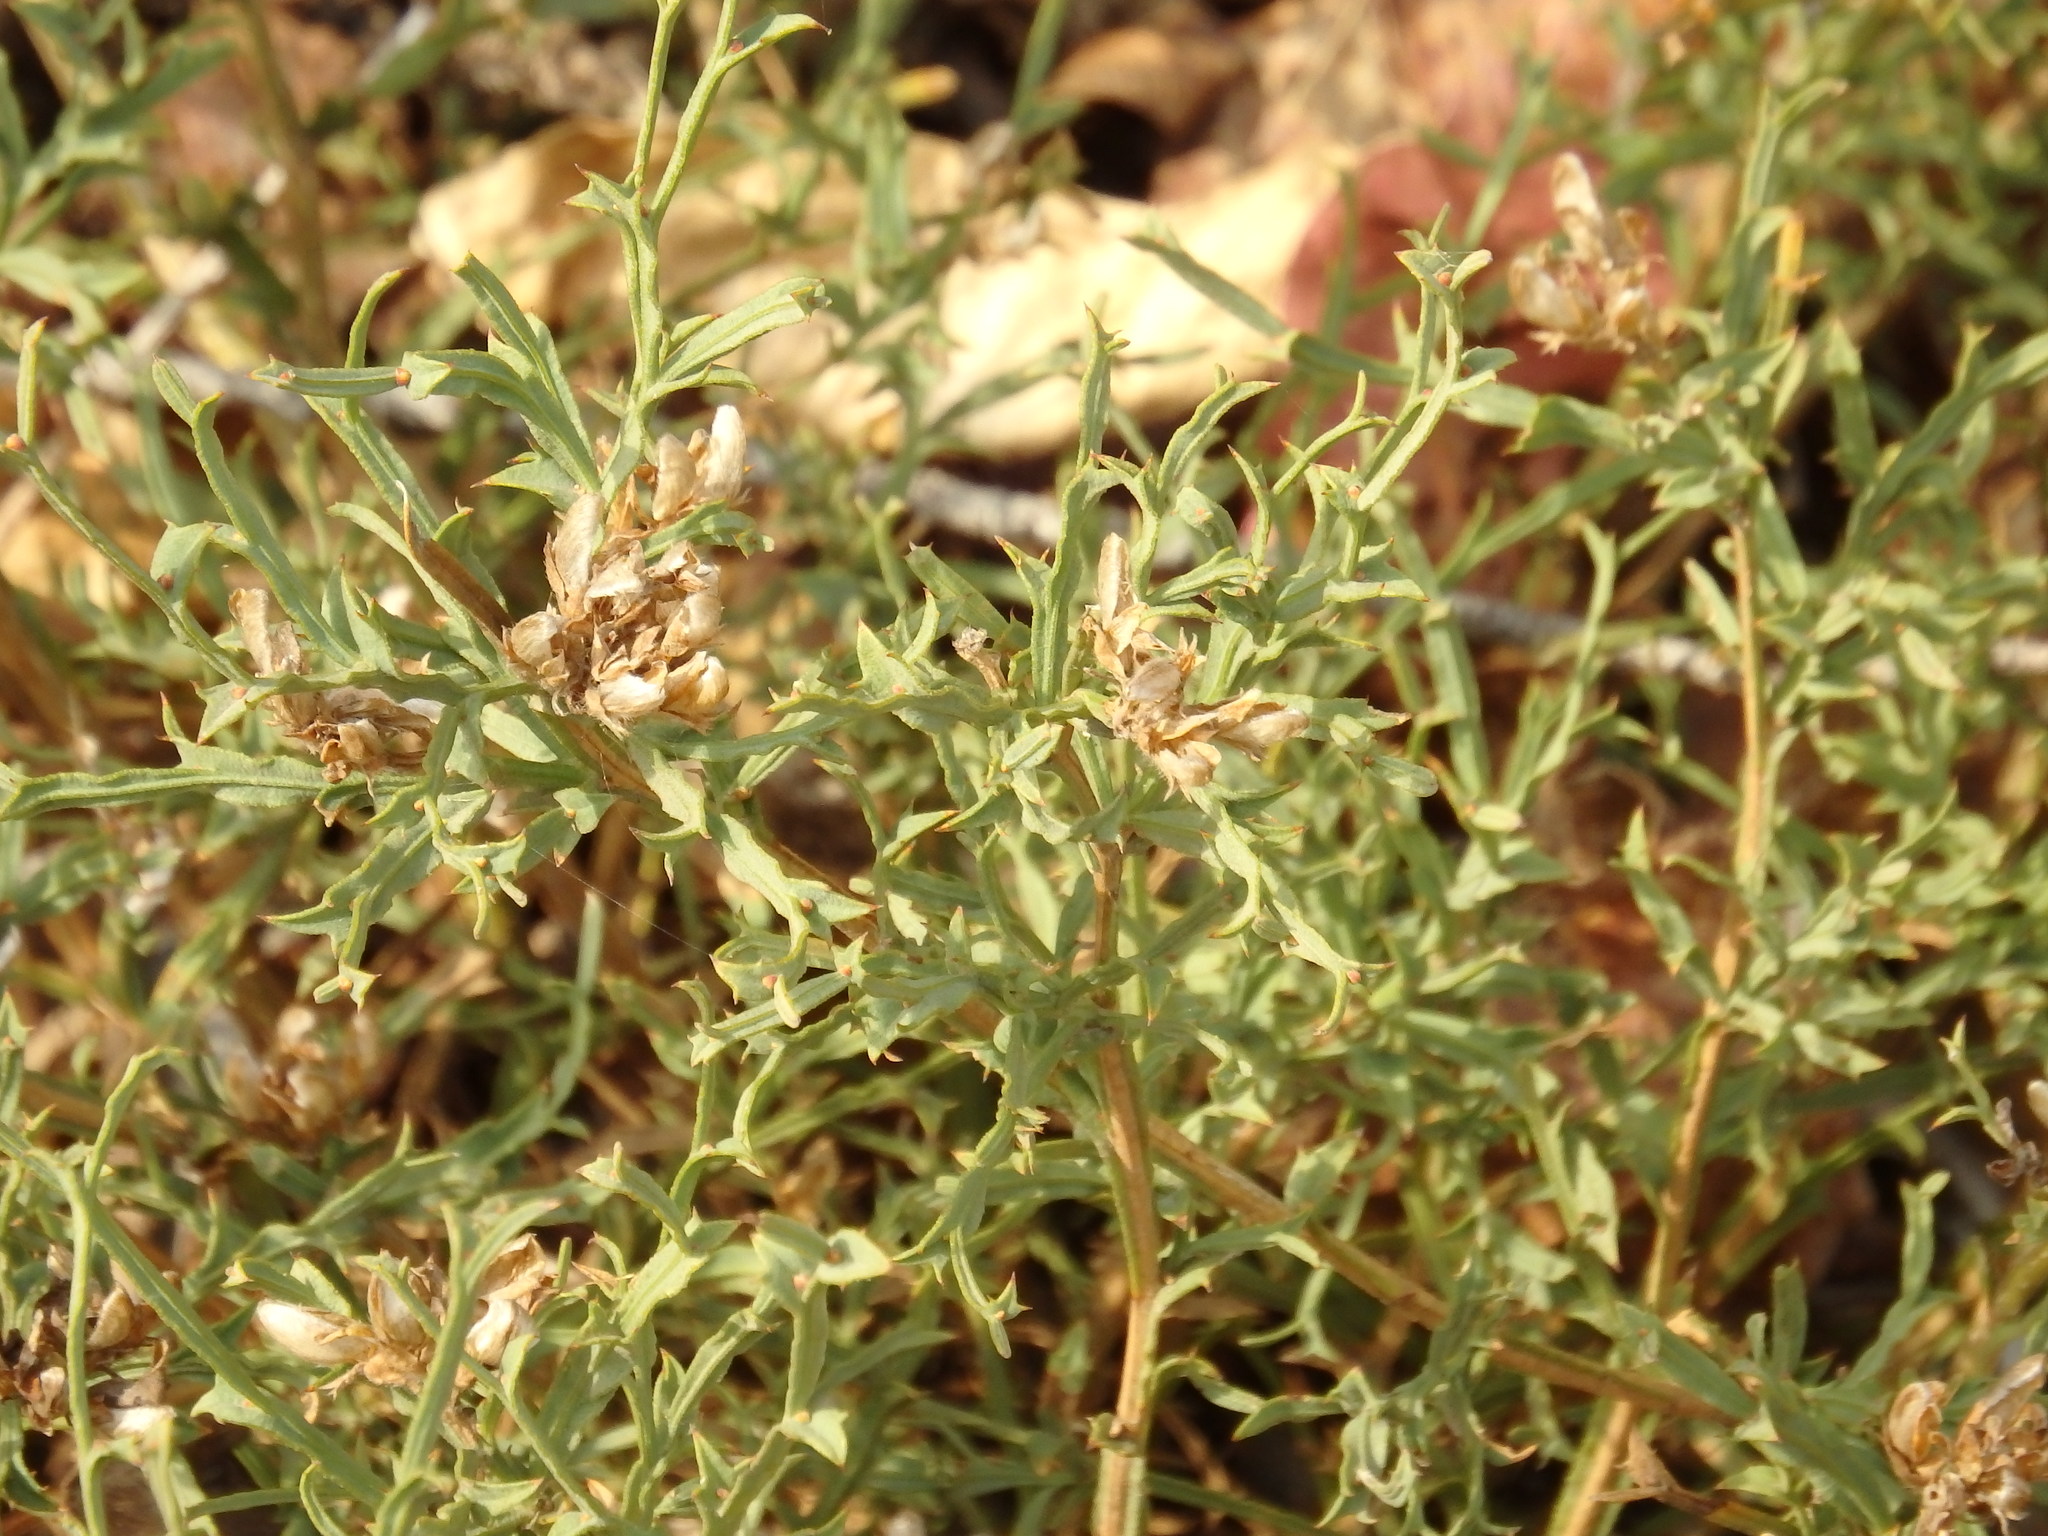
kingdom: Plantae
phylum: Tracheophyta
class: Magnoliopsida
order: Fabales
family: Fabaceae
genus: Genista
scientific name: Genista tridentata
